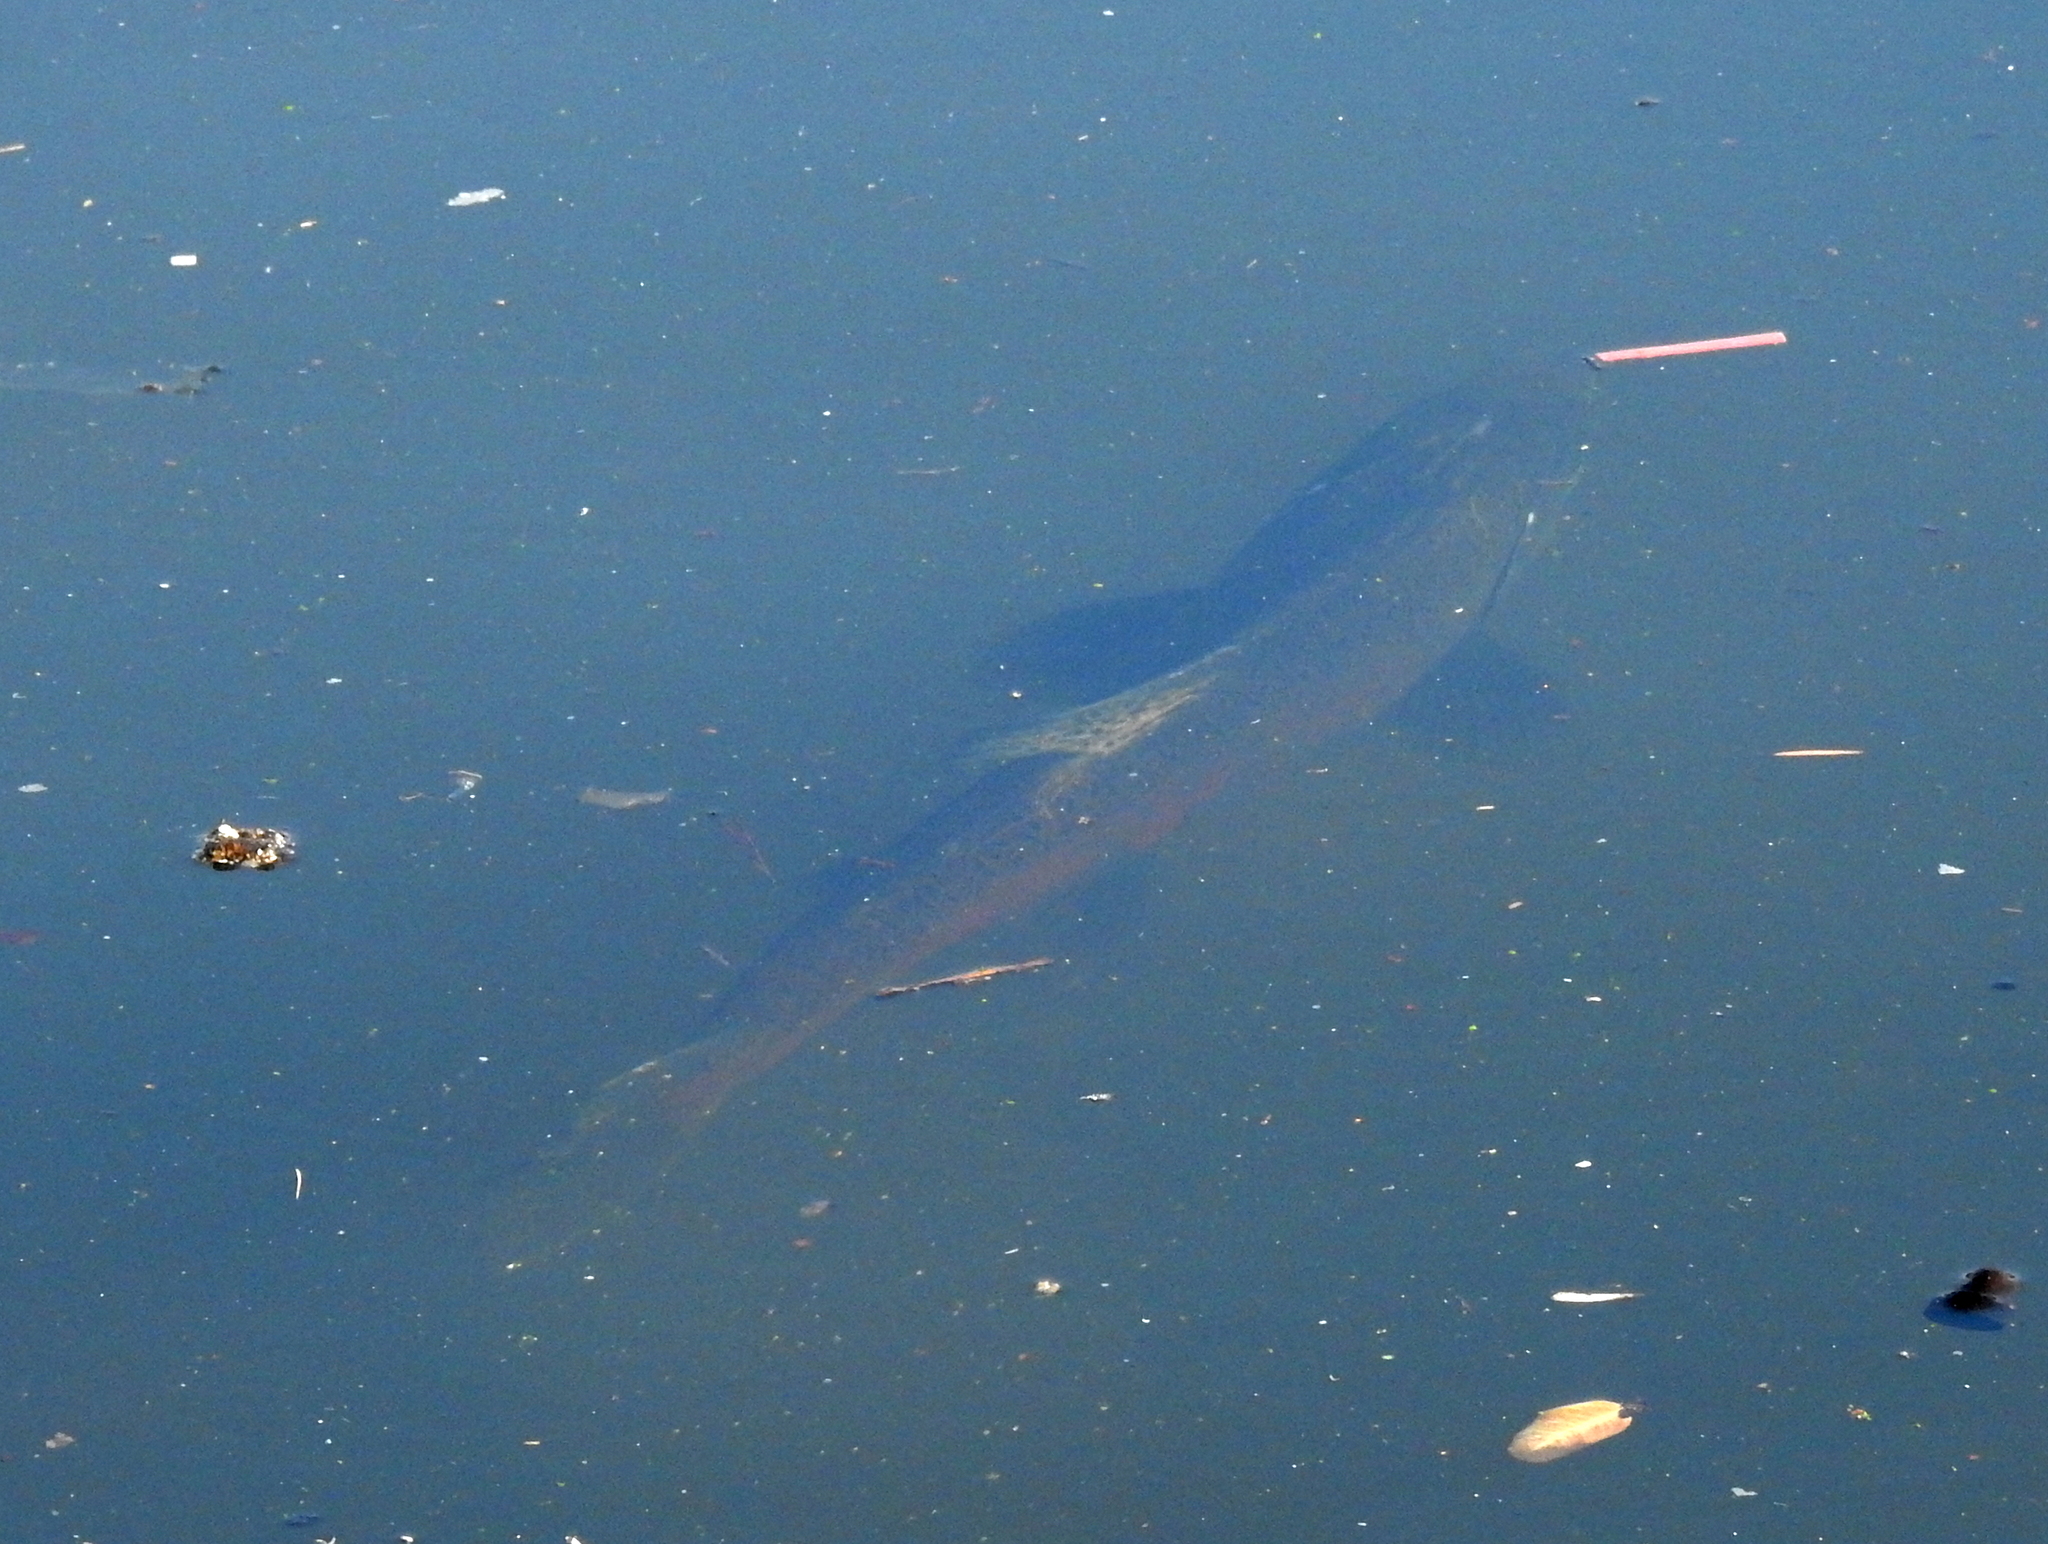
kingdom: Animalia
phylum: Chordata
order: Salmoniformes
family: Salmonidae
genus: Oncorhynchus
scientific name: Oncorhynchus tshawytscha
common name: Chinook salmon
